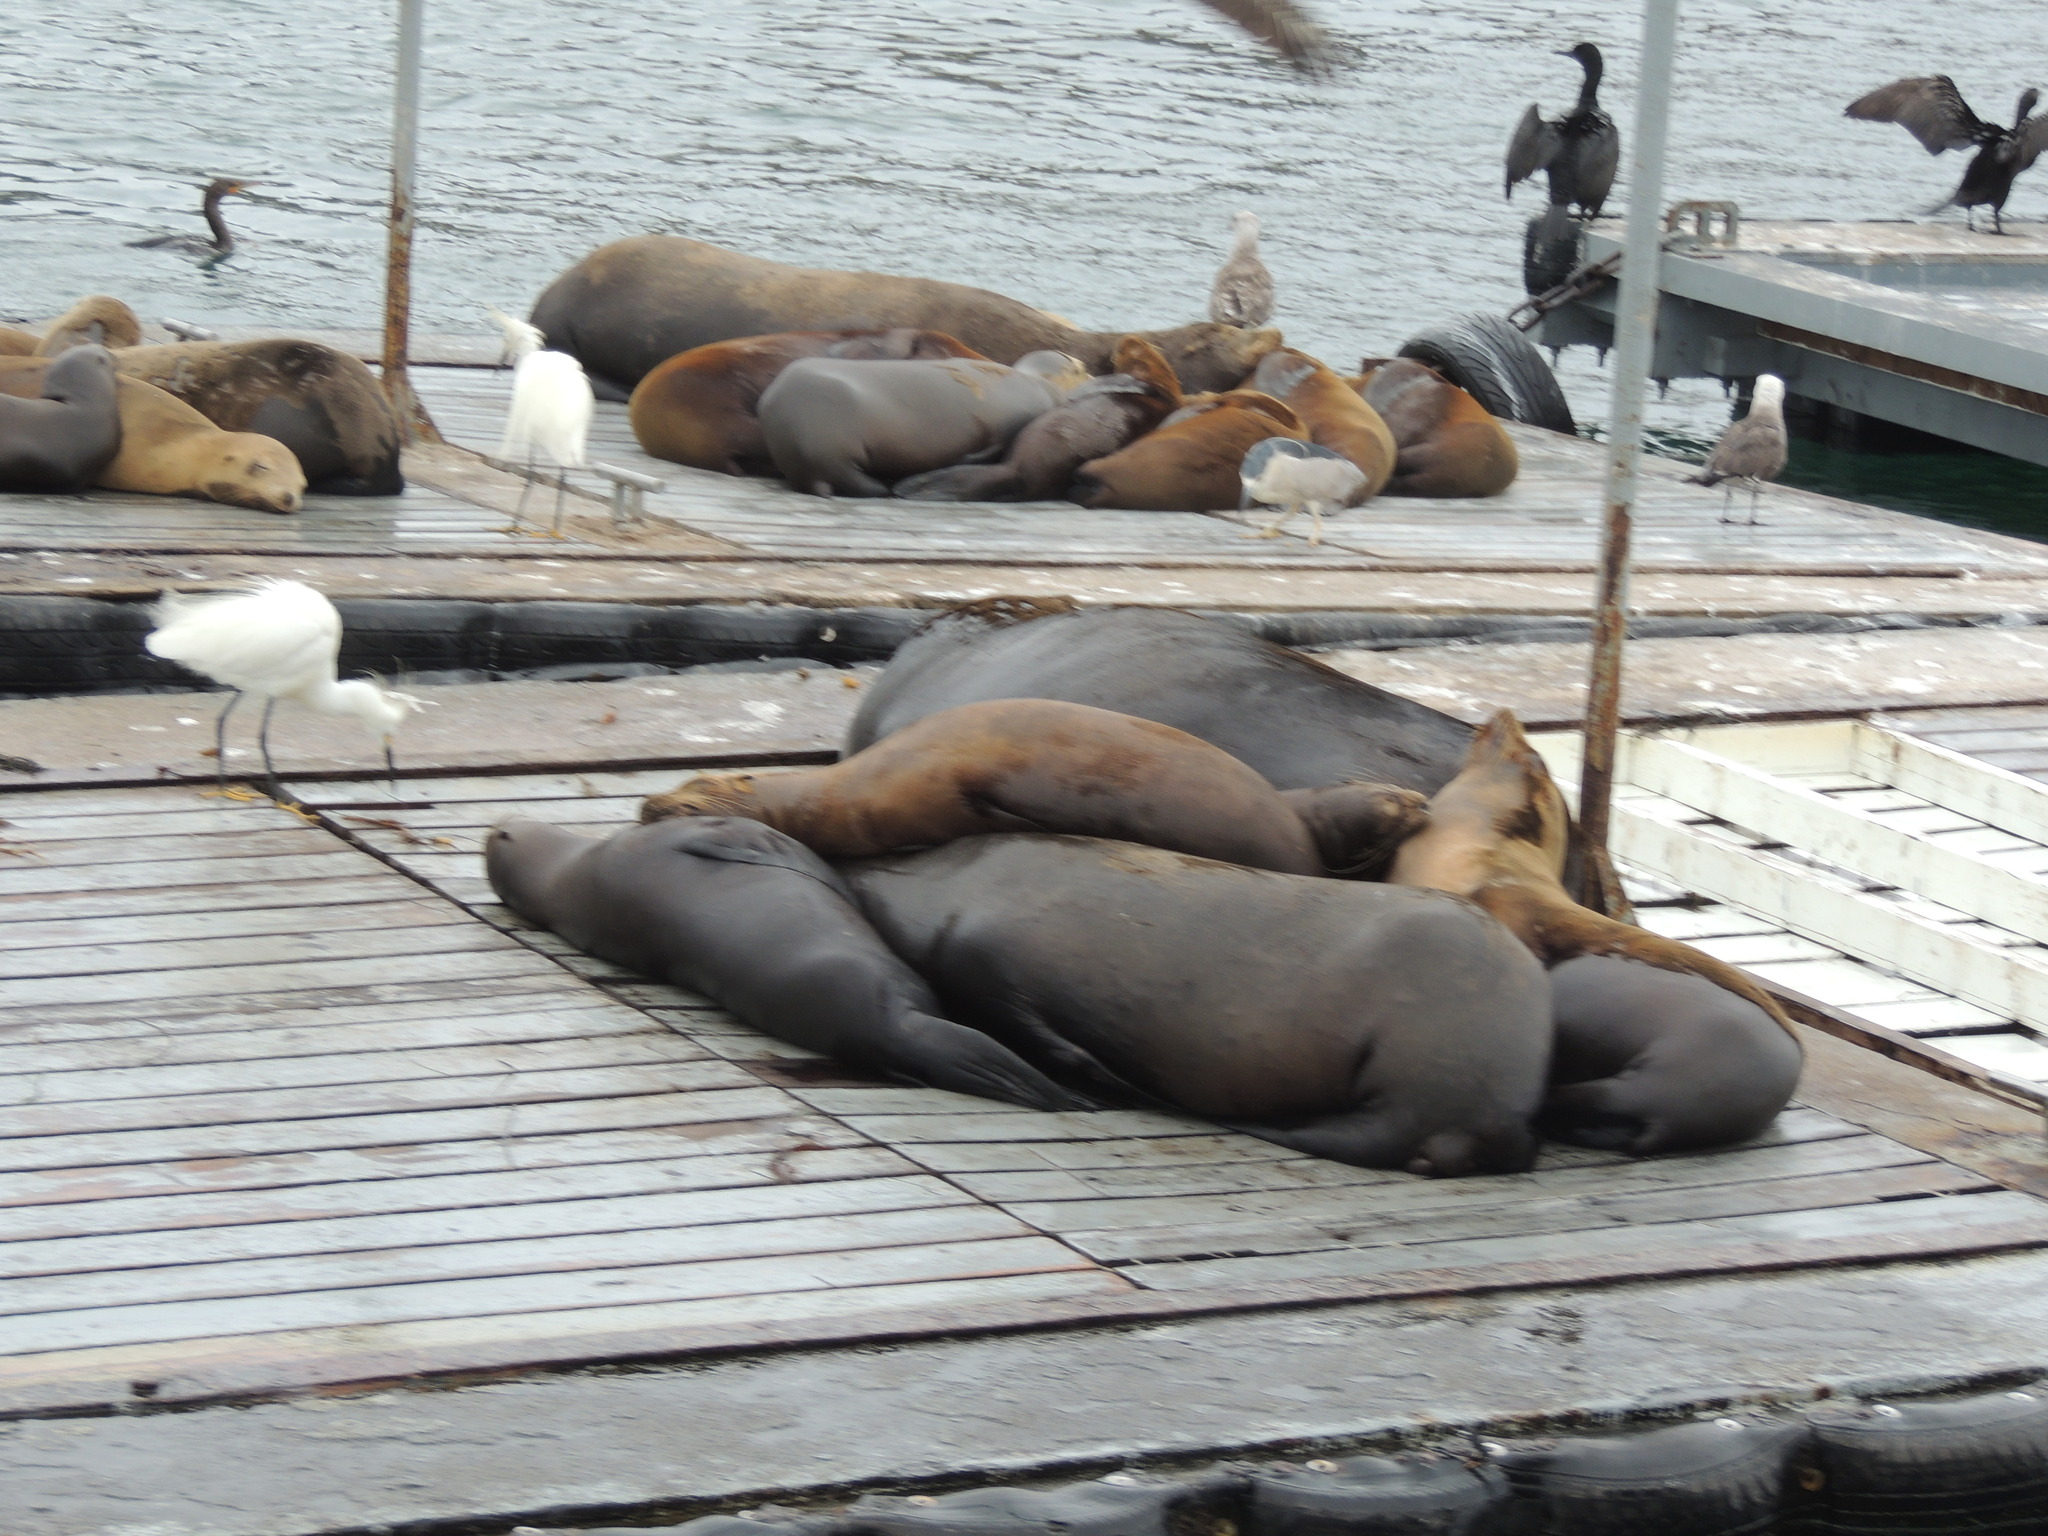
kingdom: Animalia
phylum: Chordata
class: Aves
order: Pelecaniformes
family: Ardeidae
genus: Nycticorax
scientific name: Nycticorax nycticorax
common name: Black-crowned night heron
